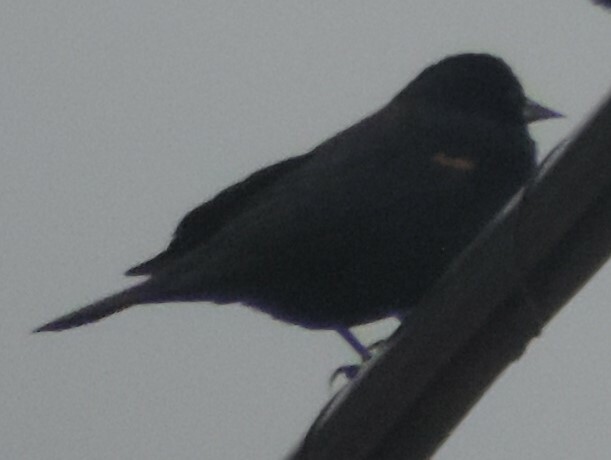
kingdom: Animalia
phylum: Chordata
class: Aves
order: Passeriformes
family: Icteridae
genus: Agelaius
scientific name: Agelaius phoeniceus
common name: Red-winged blackbird
